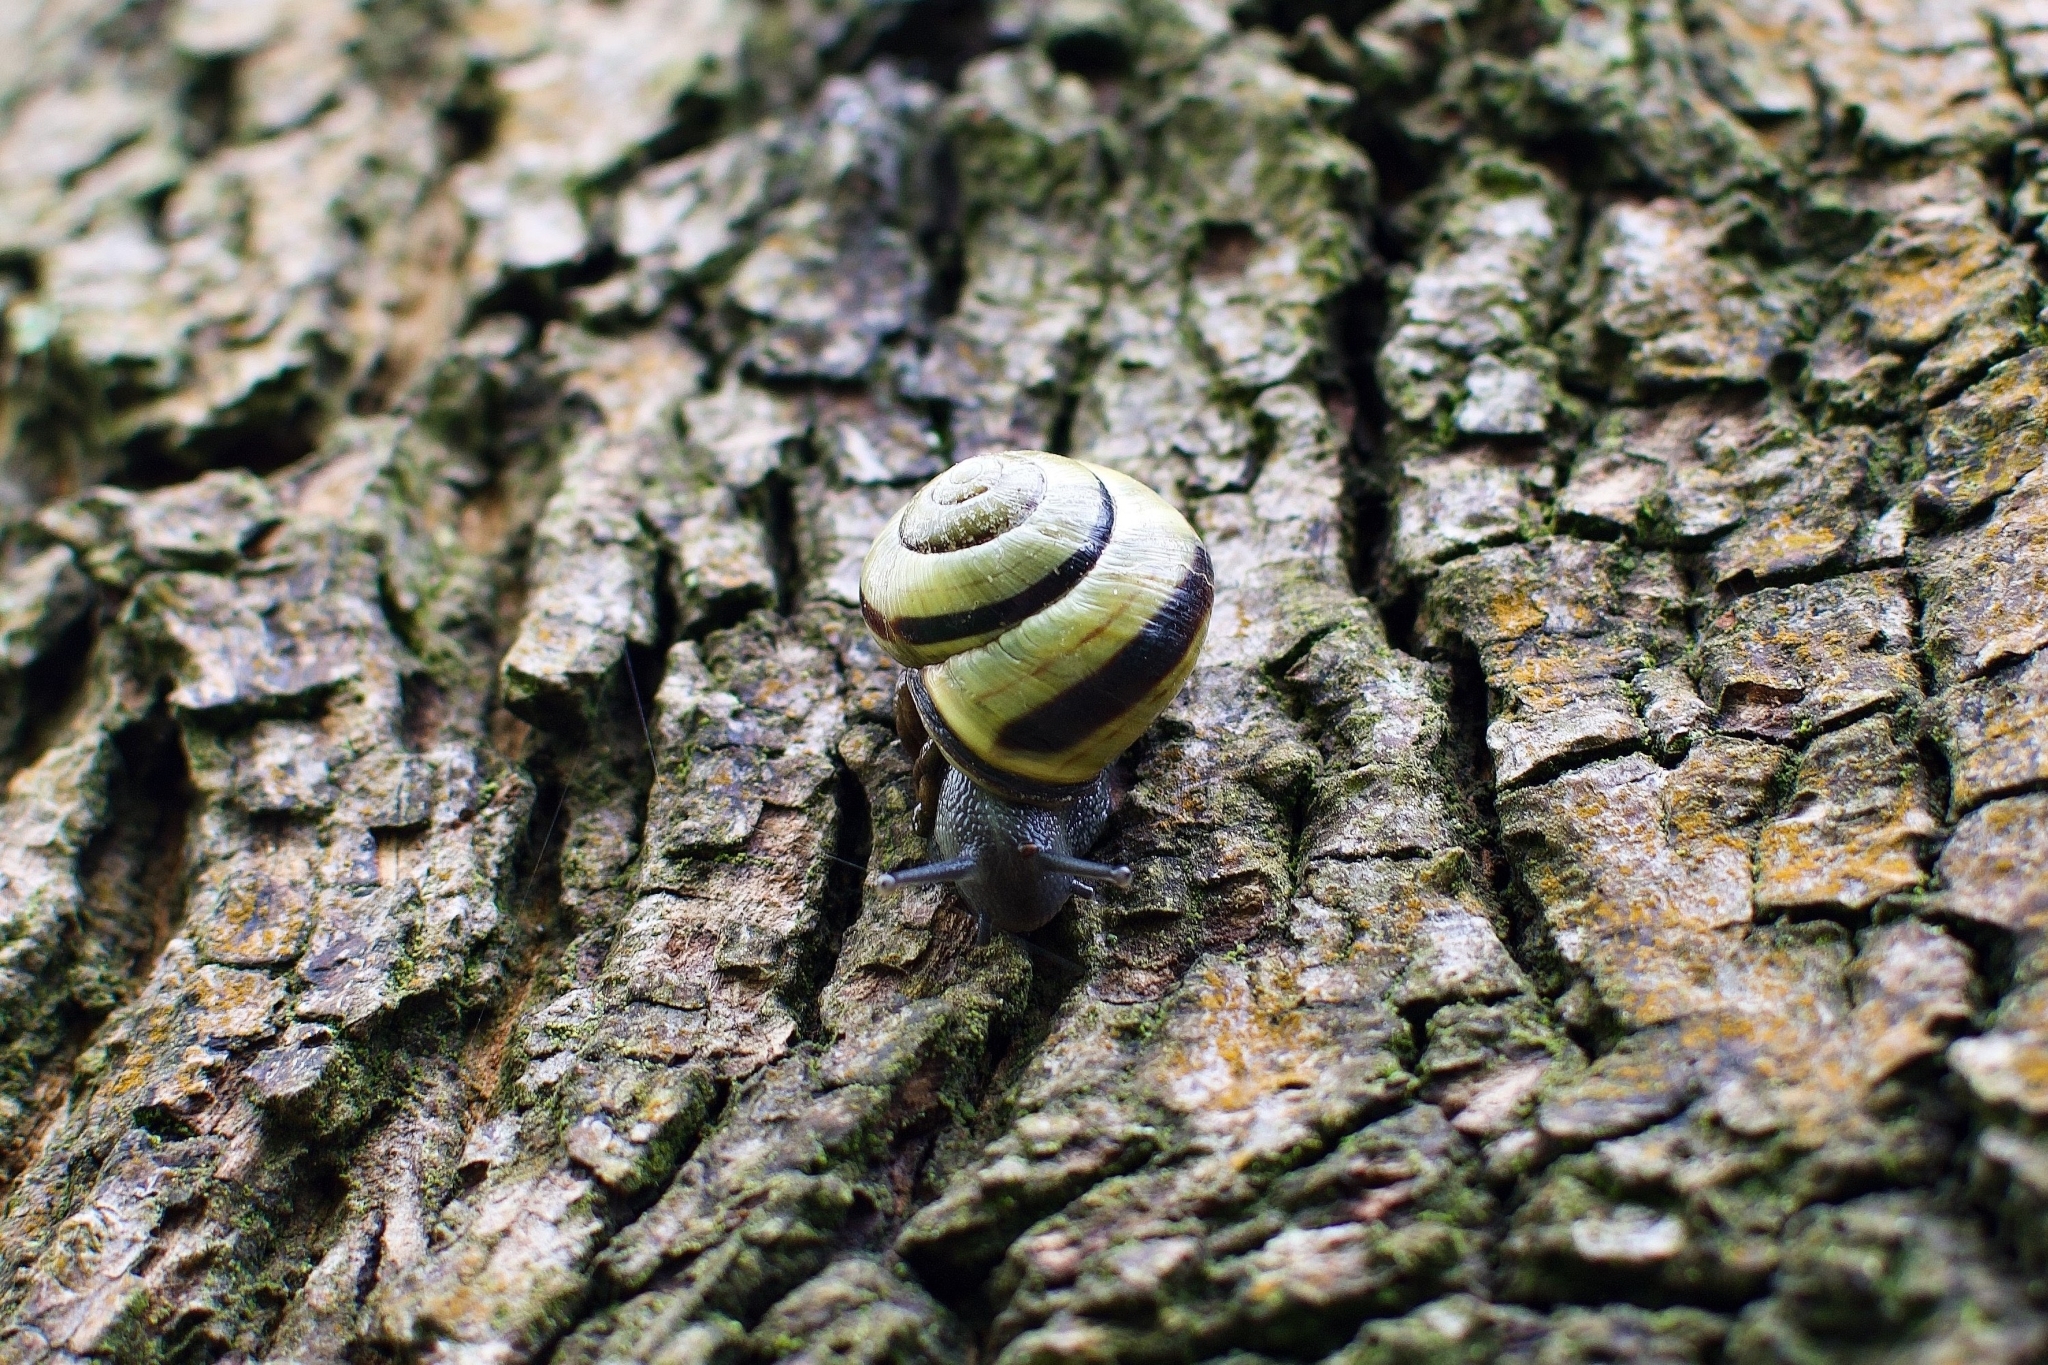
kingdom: Animalia
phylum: Mollusca
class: Gastropoda
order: Stylommatophora
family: Helicidae
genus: Cepaea
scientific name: Cepaea nemoralis
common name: Grovesnail
